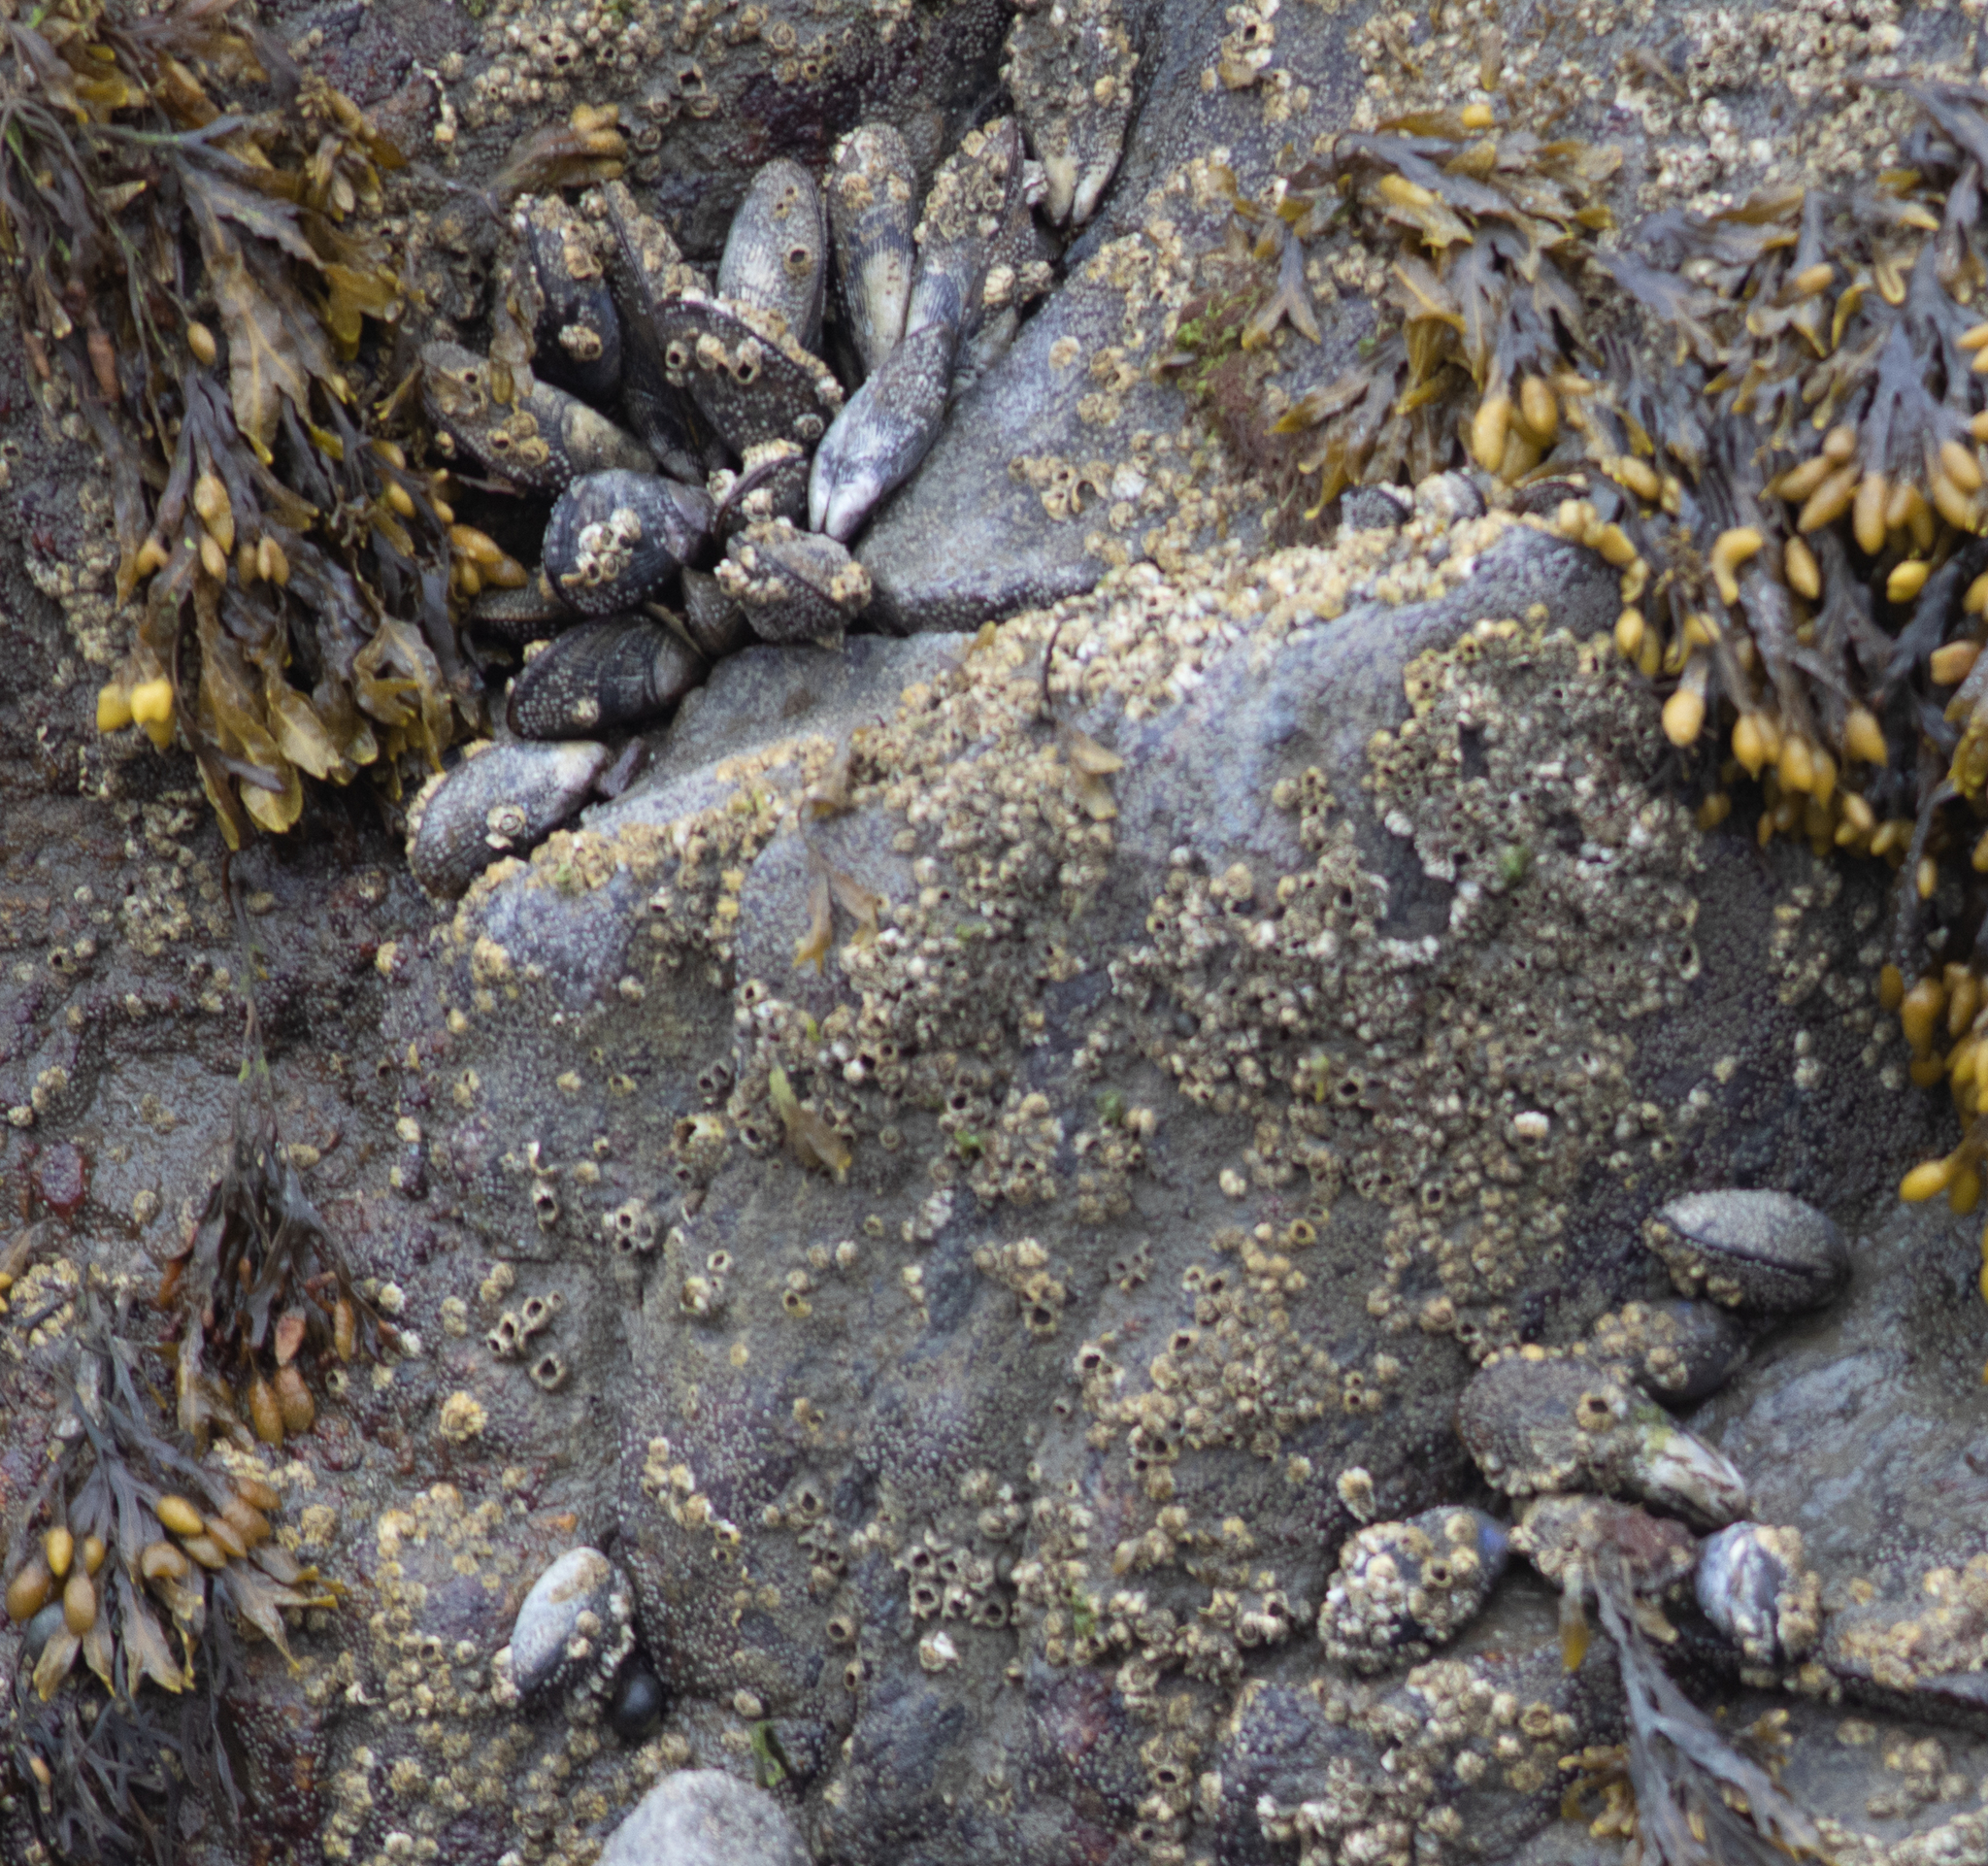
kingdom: Animalia
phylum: Mollusca
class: Bivalvia
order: Mytilida
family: Mytilidae
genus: Geukensia
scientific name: Geukensia demissa
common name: Ribbed mussel
